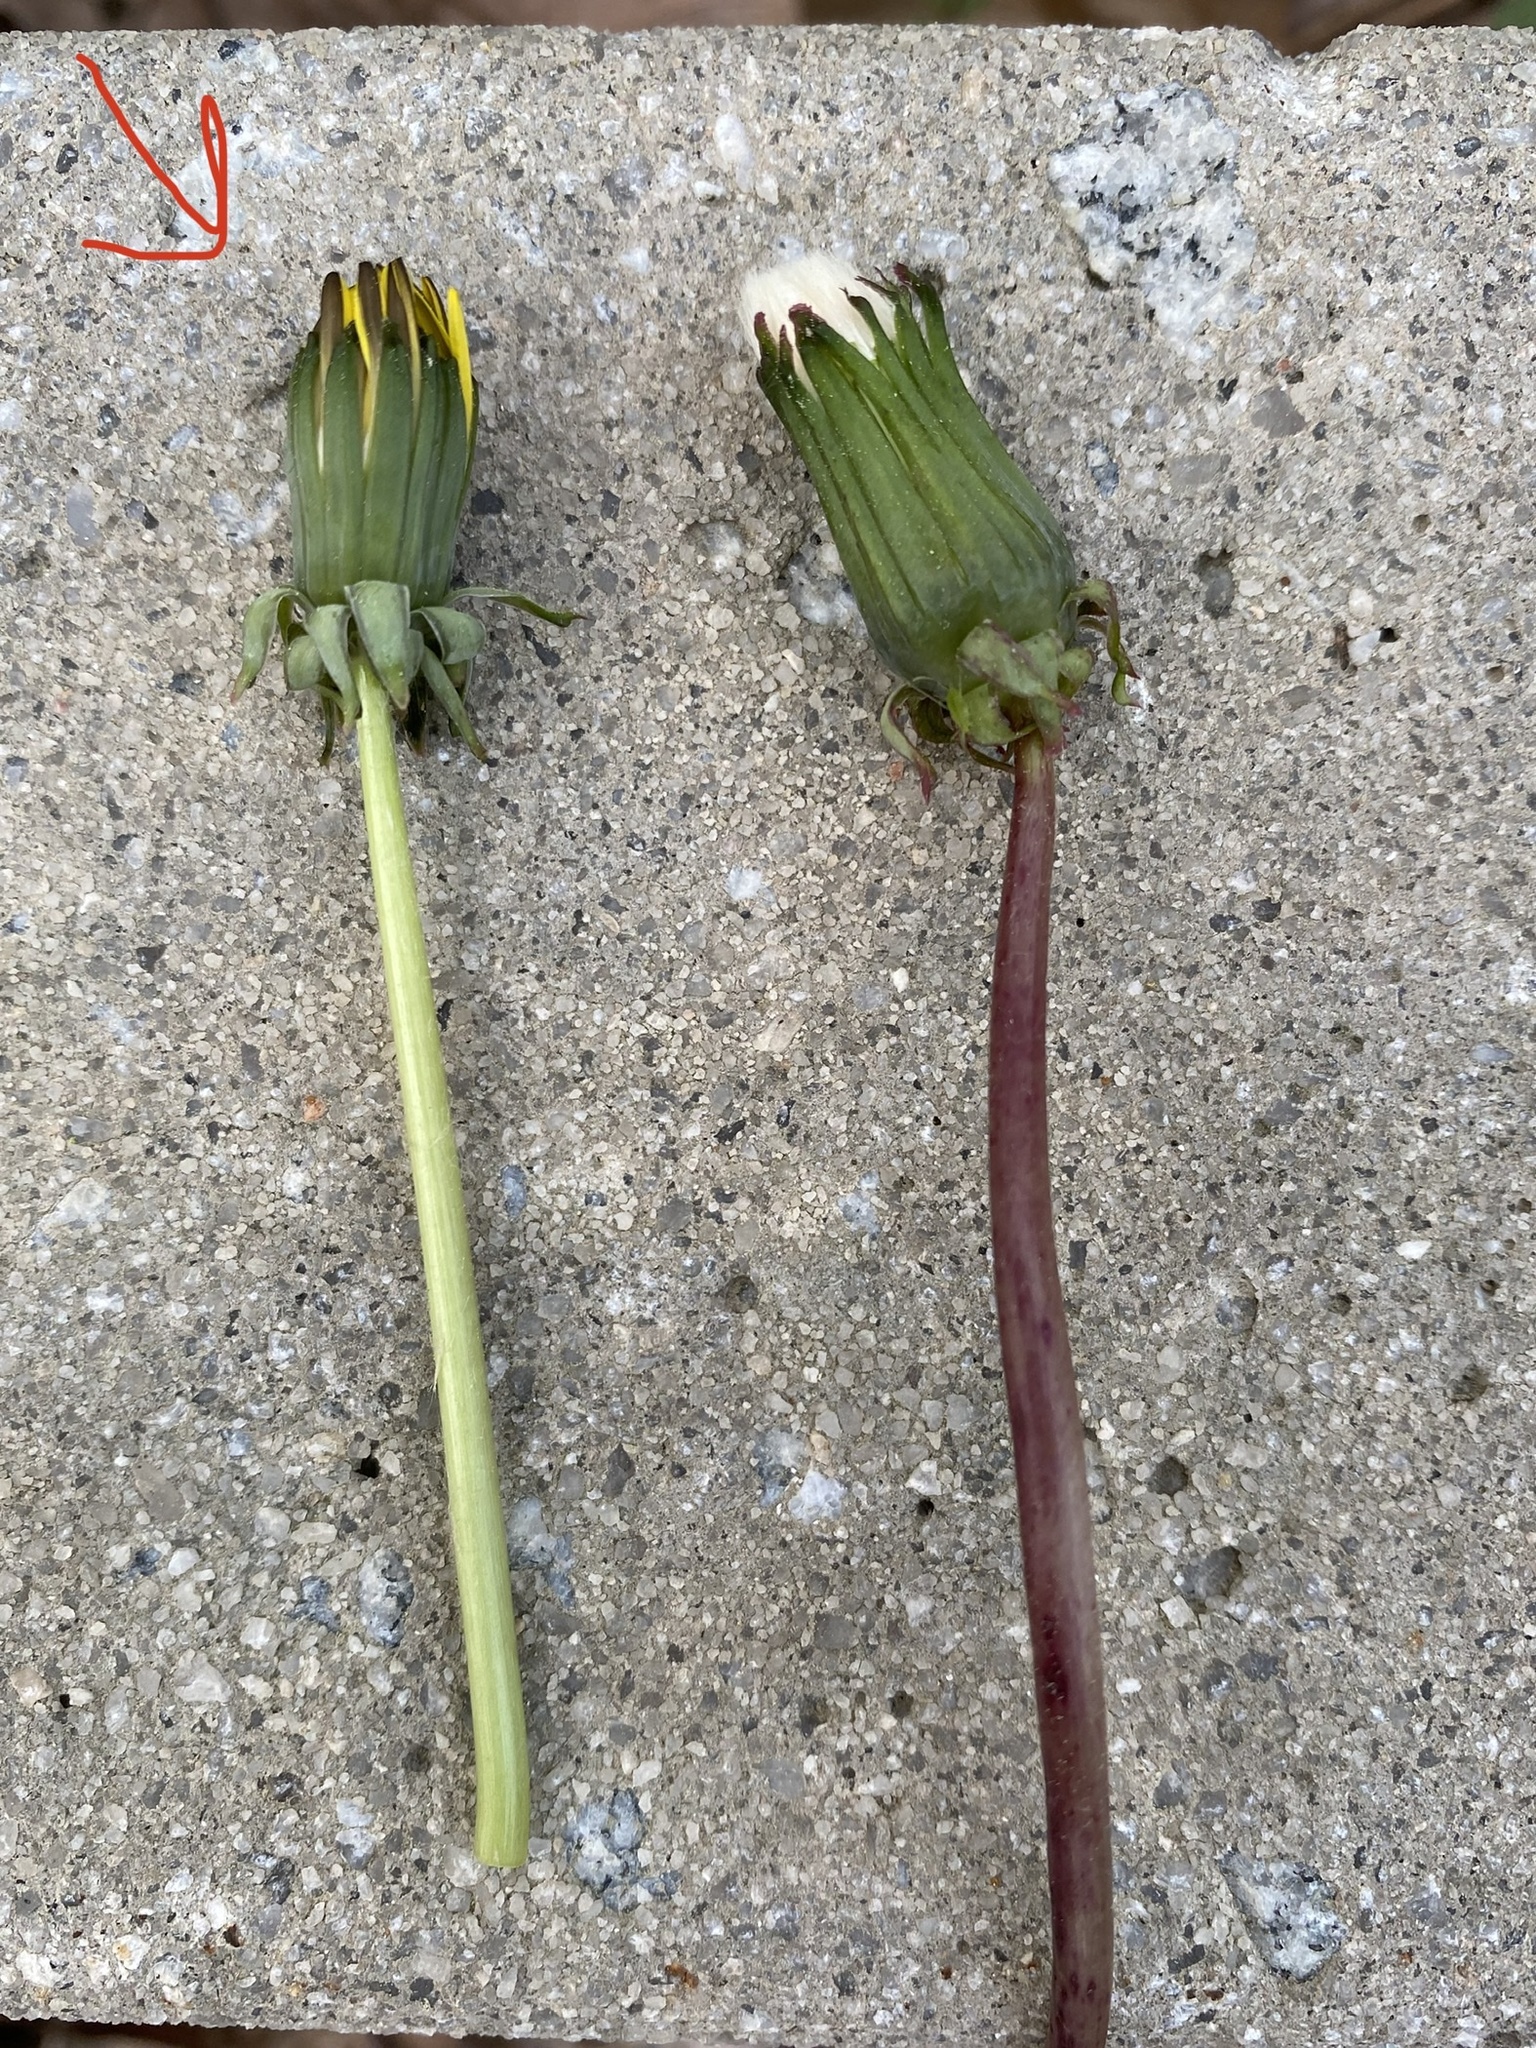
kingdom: Plantae
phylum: Tracheophyta
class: Magnoliopsida
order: Asterales
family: Asteraceae
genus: Taraxacum
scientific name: Taraxacum officinale
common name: Common dandelion
